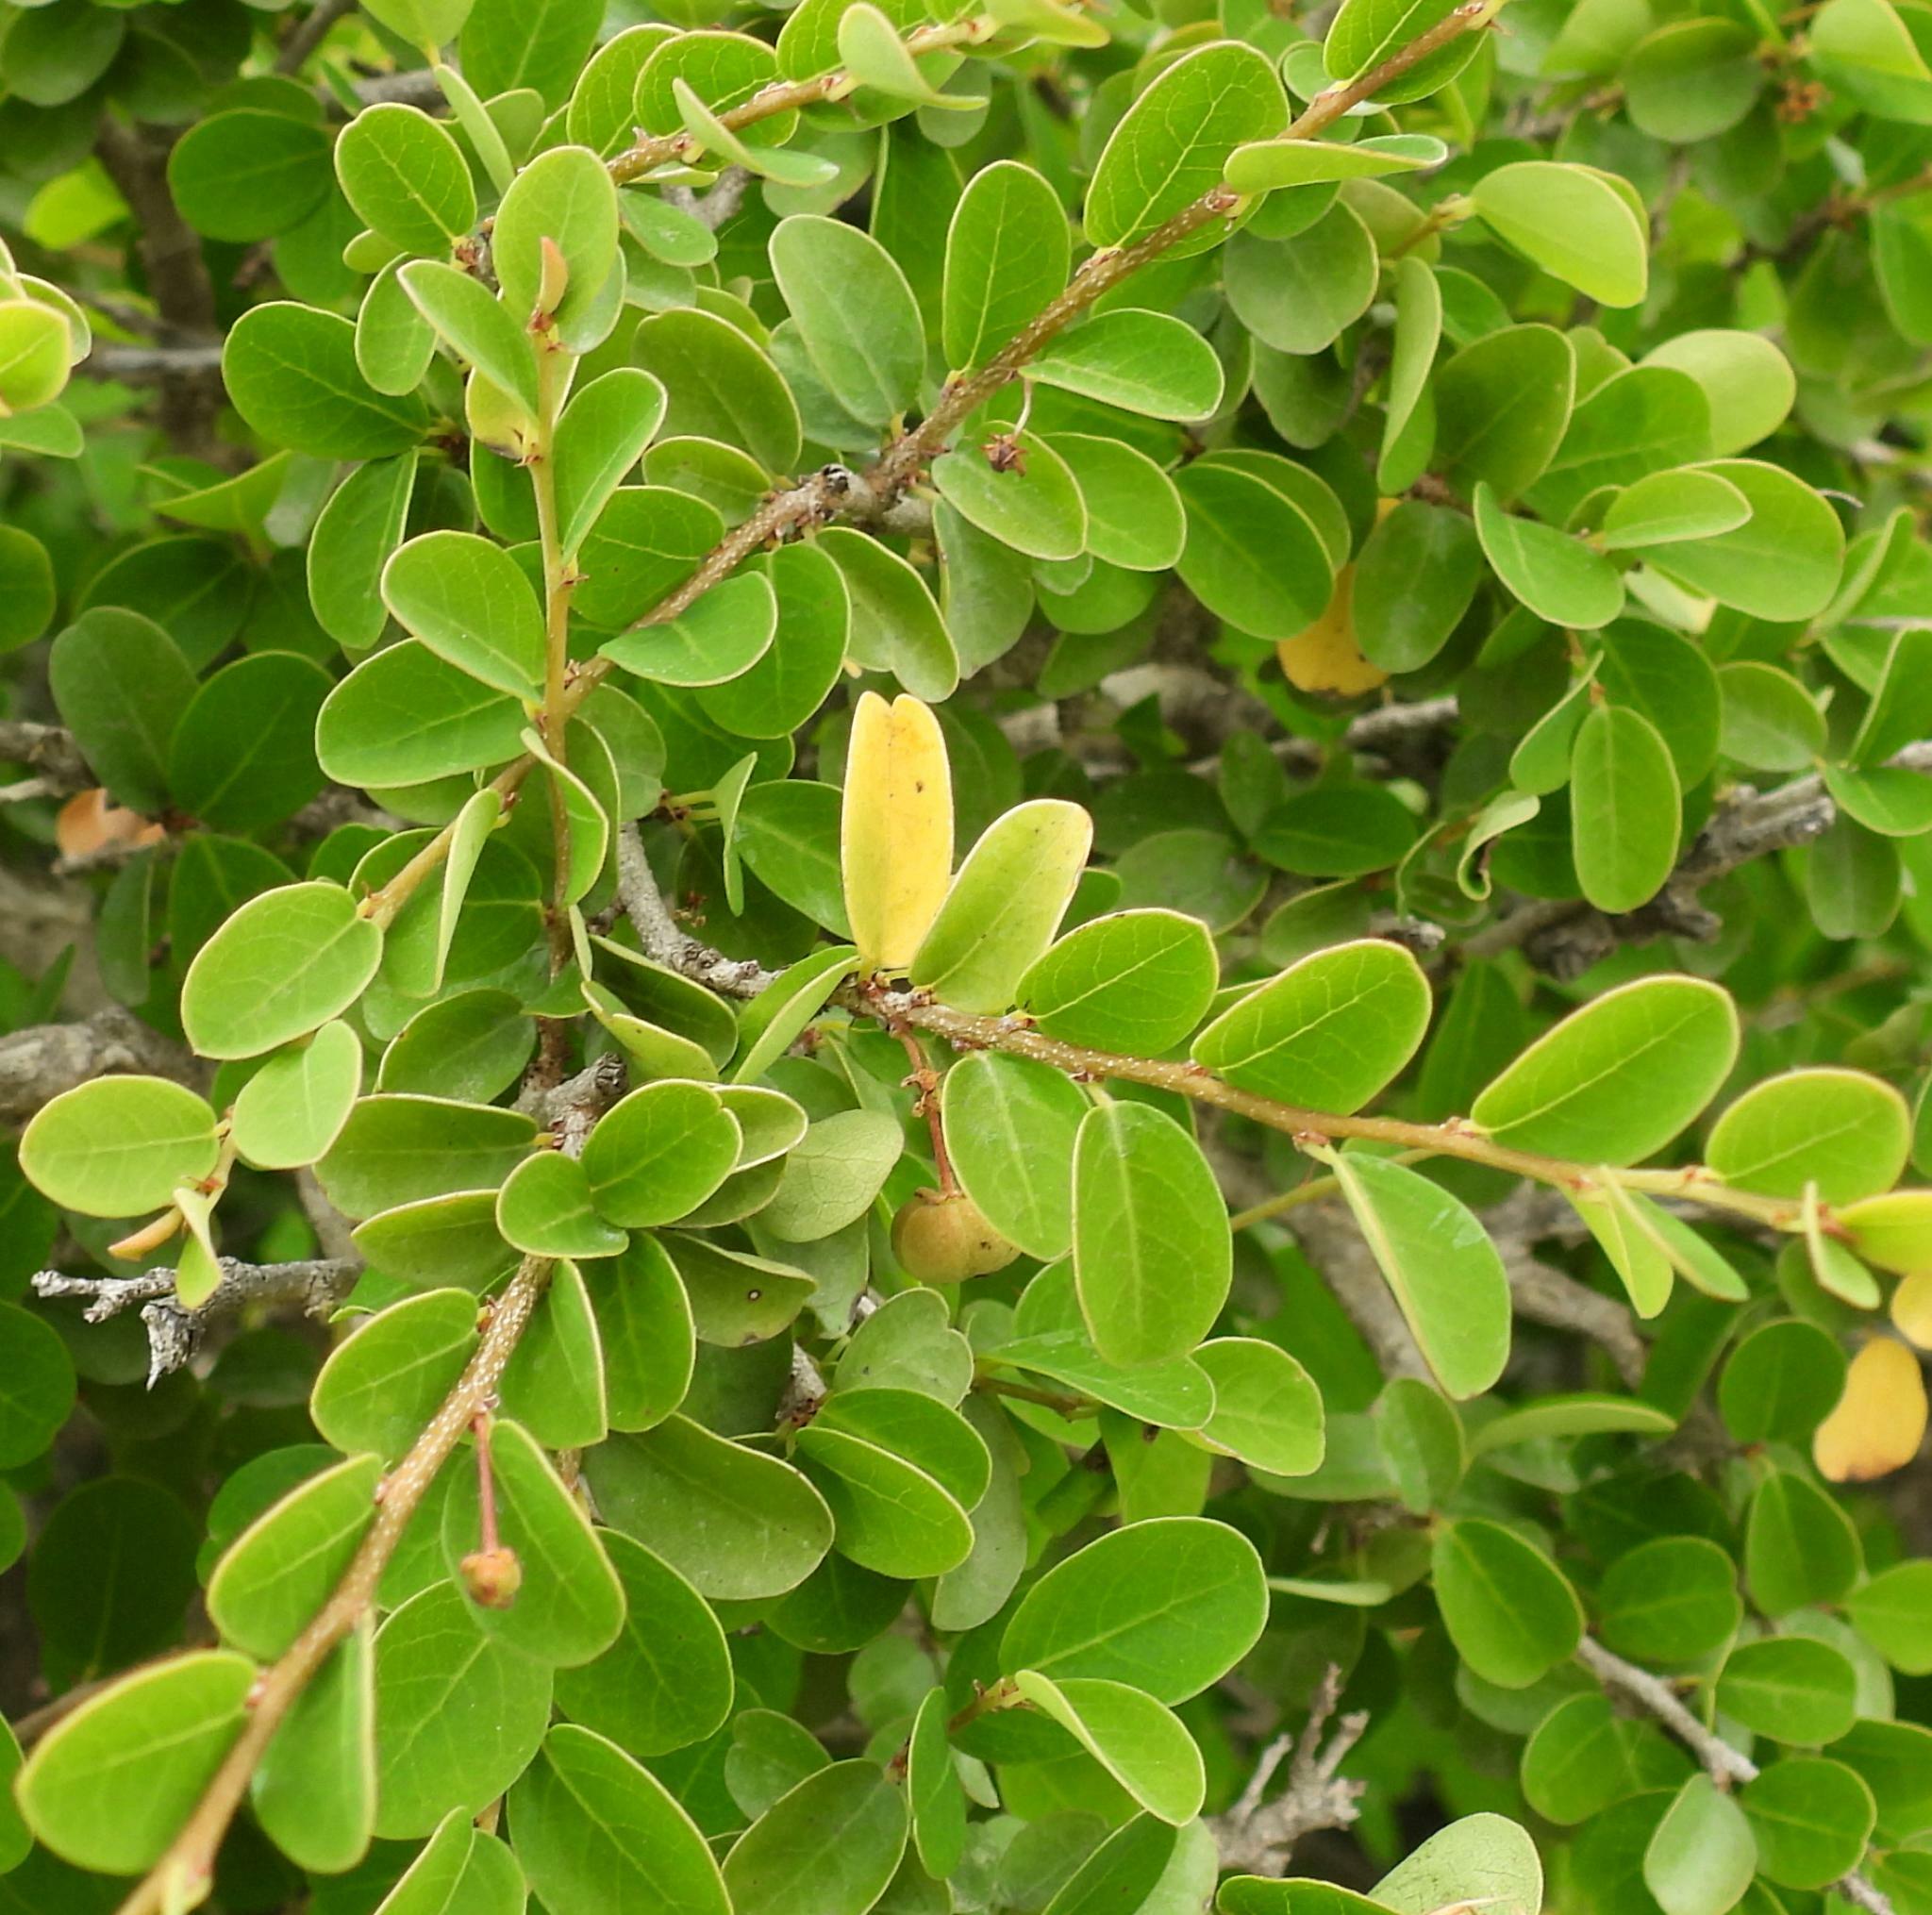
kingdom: Plantae
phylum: Tracheophyta
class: Magnoliopsida
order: Malpighiales
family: Phyllanthaceae
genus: Flueggea
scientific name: Flueggea verrucosa
